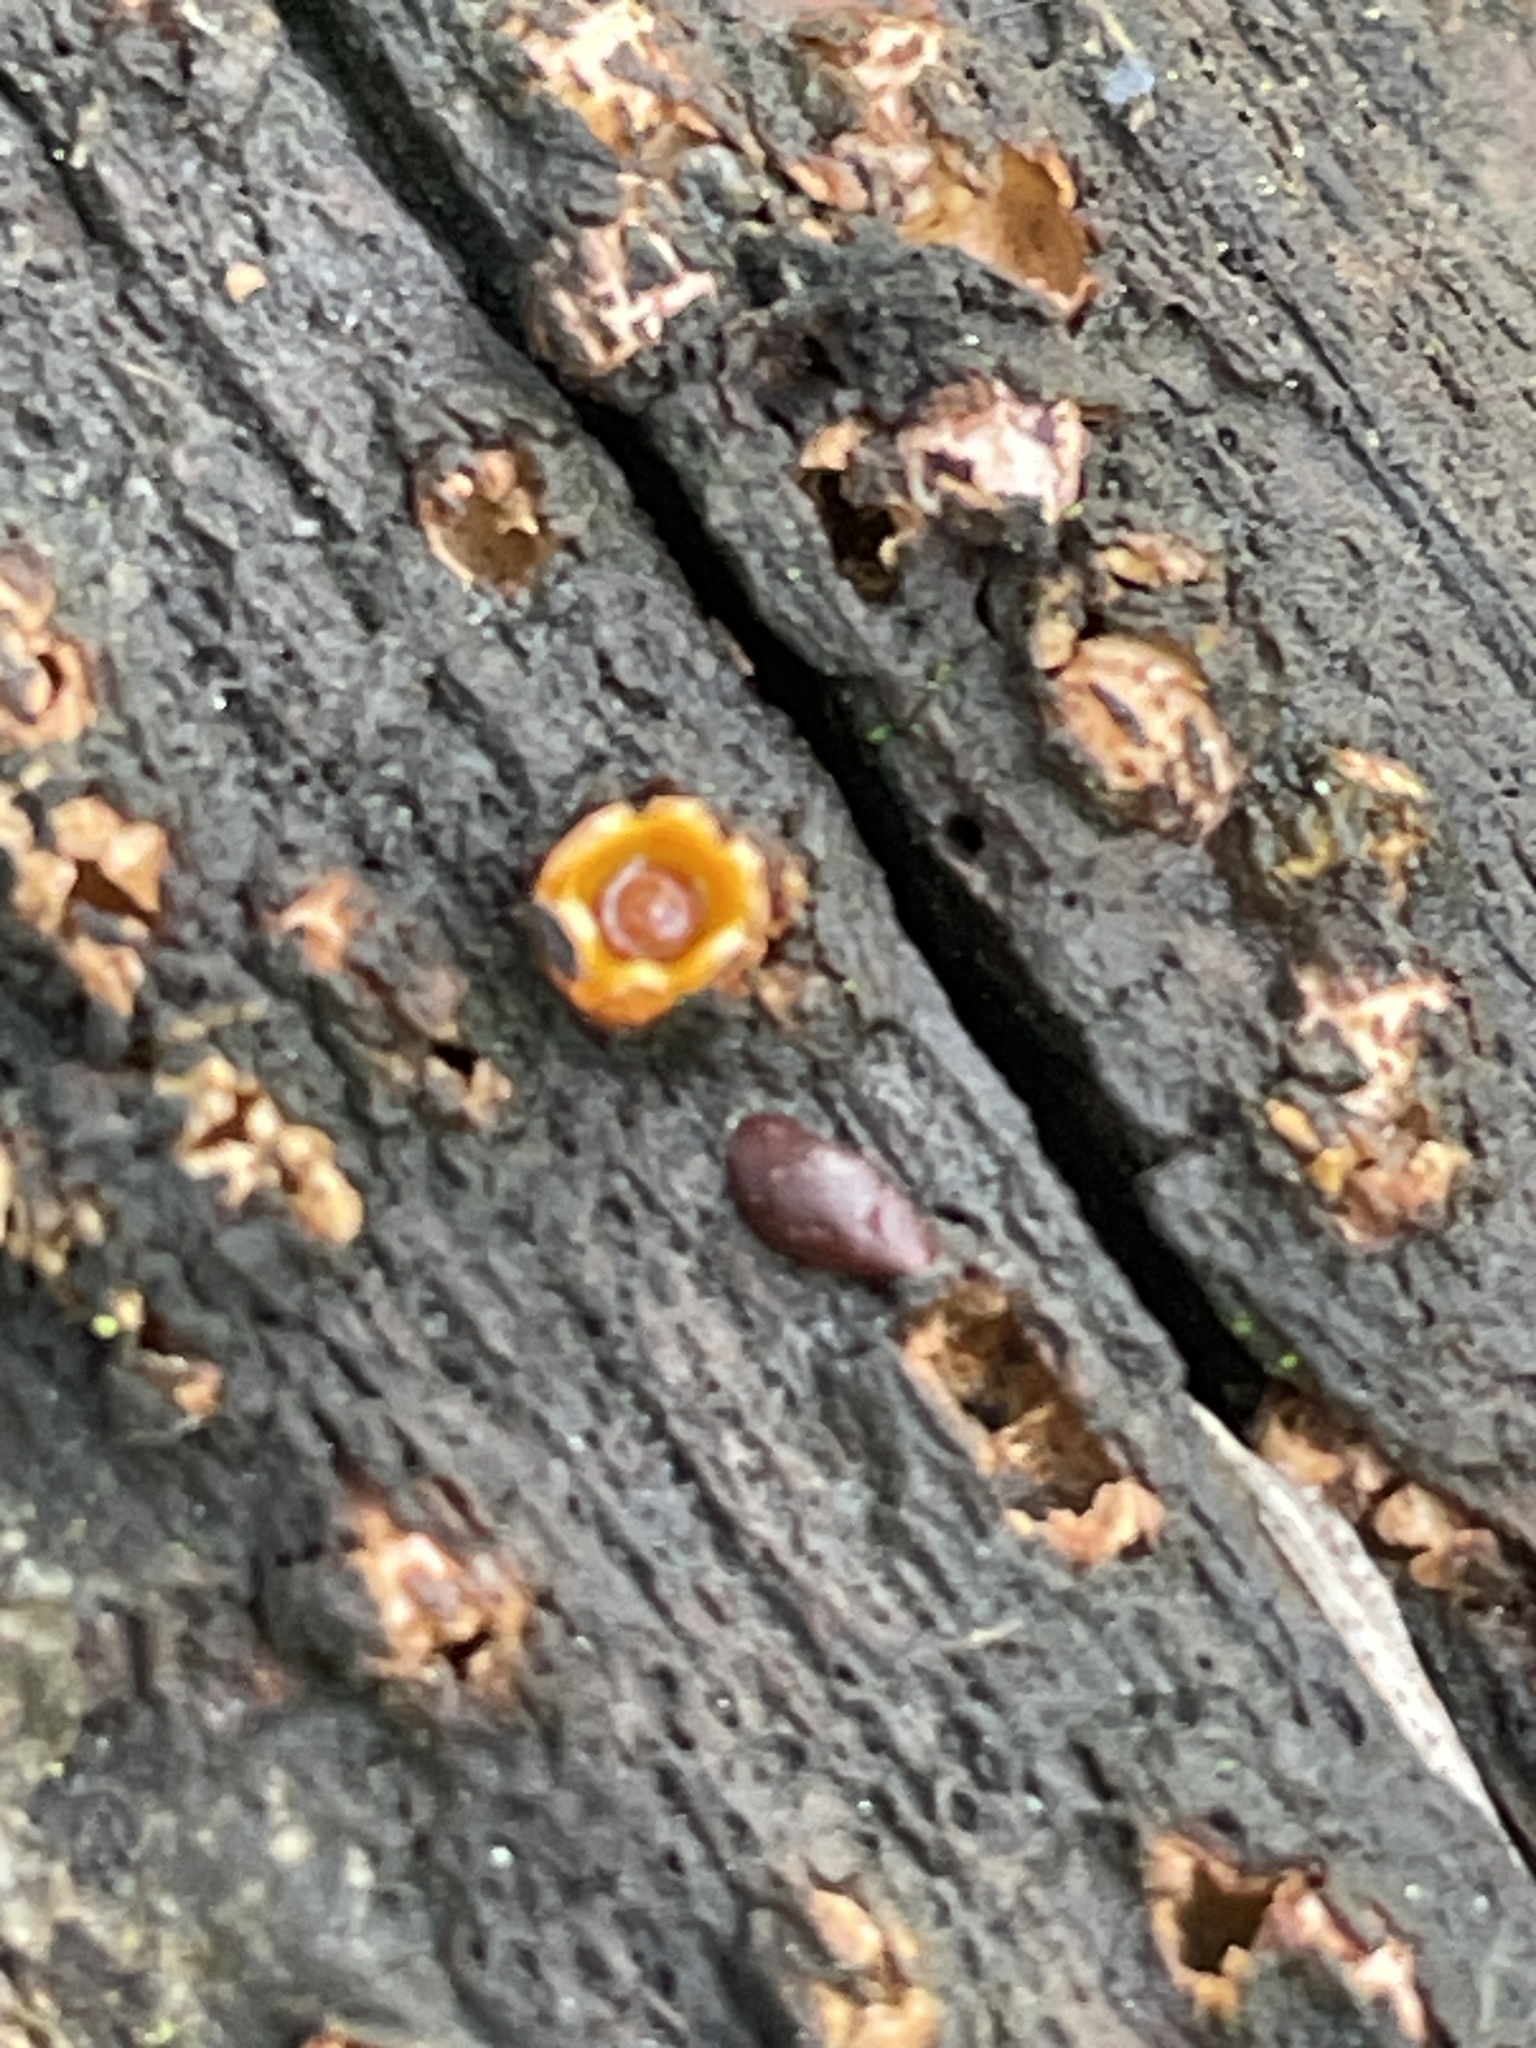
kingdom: Fungi
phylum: Basidiomycota
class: Agaricomycetes
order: Geastrales
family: Geastraceae
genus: Sphaerobolus
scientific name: Sphaerobolus stellatus
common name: Cannon fungus
